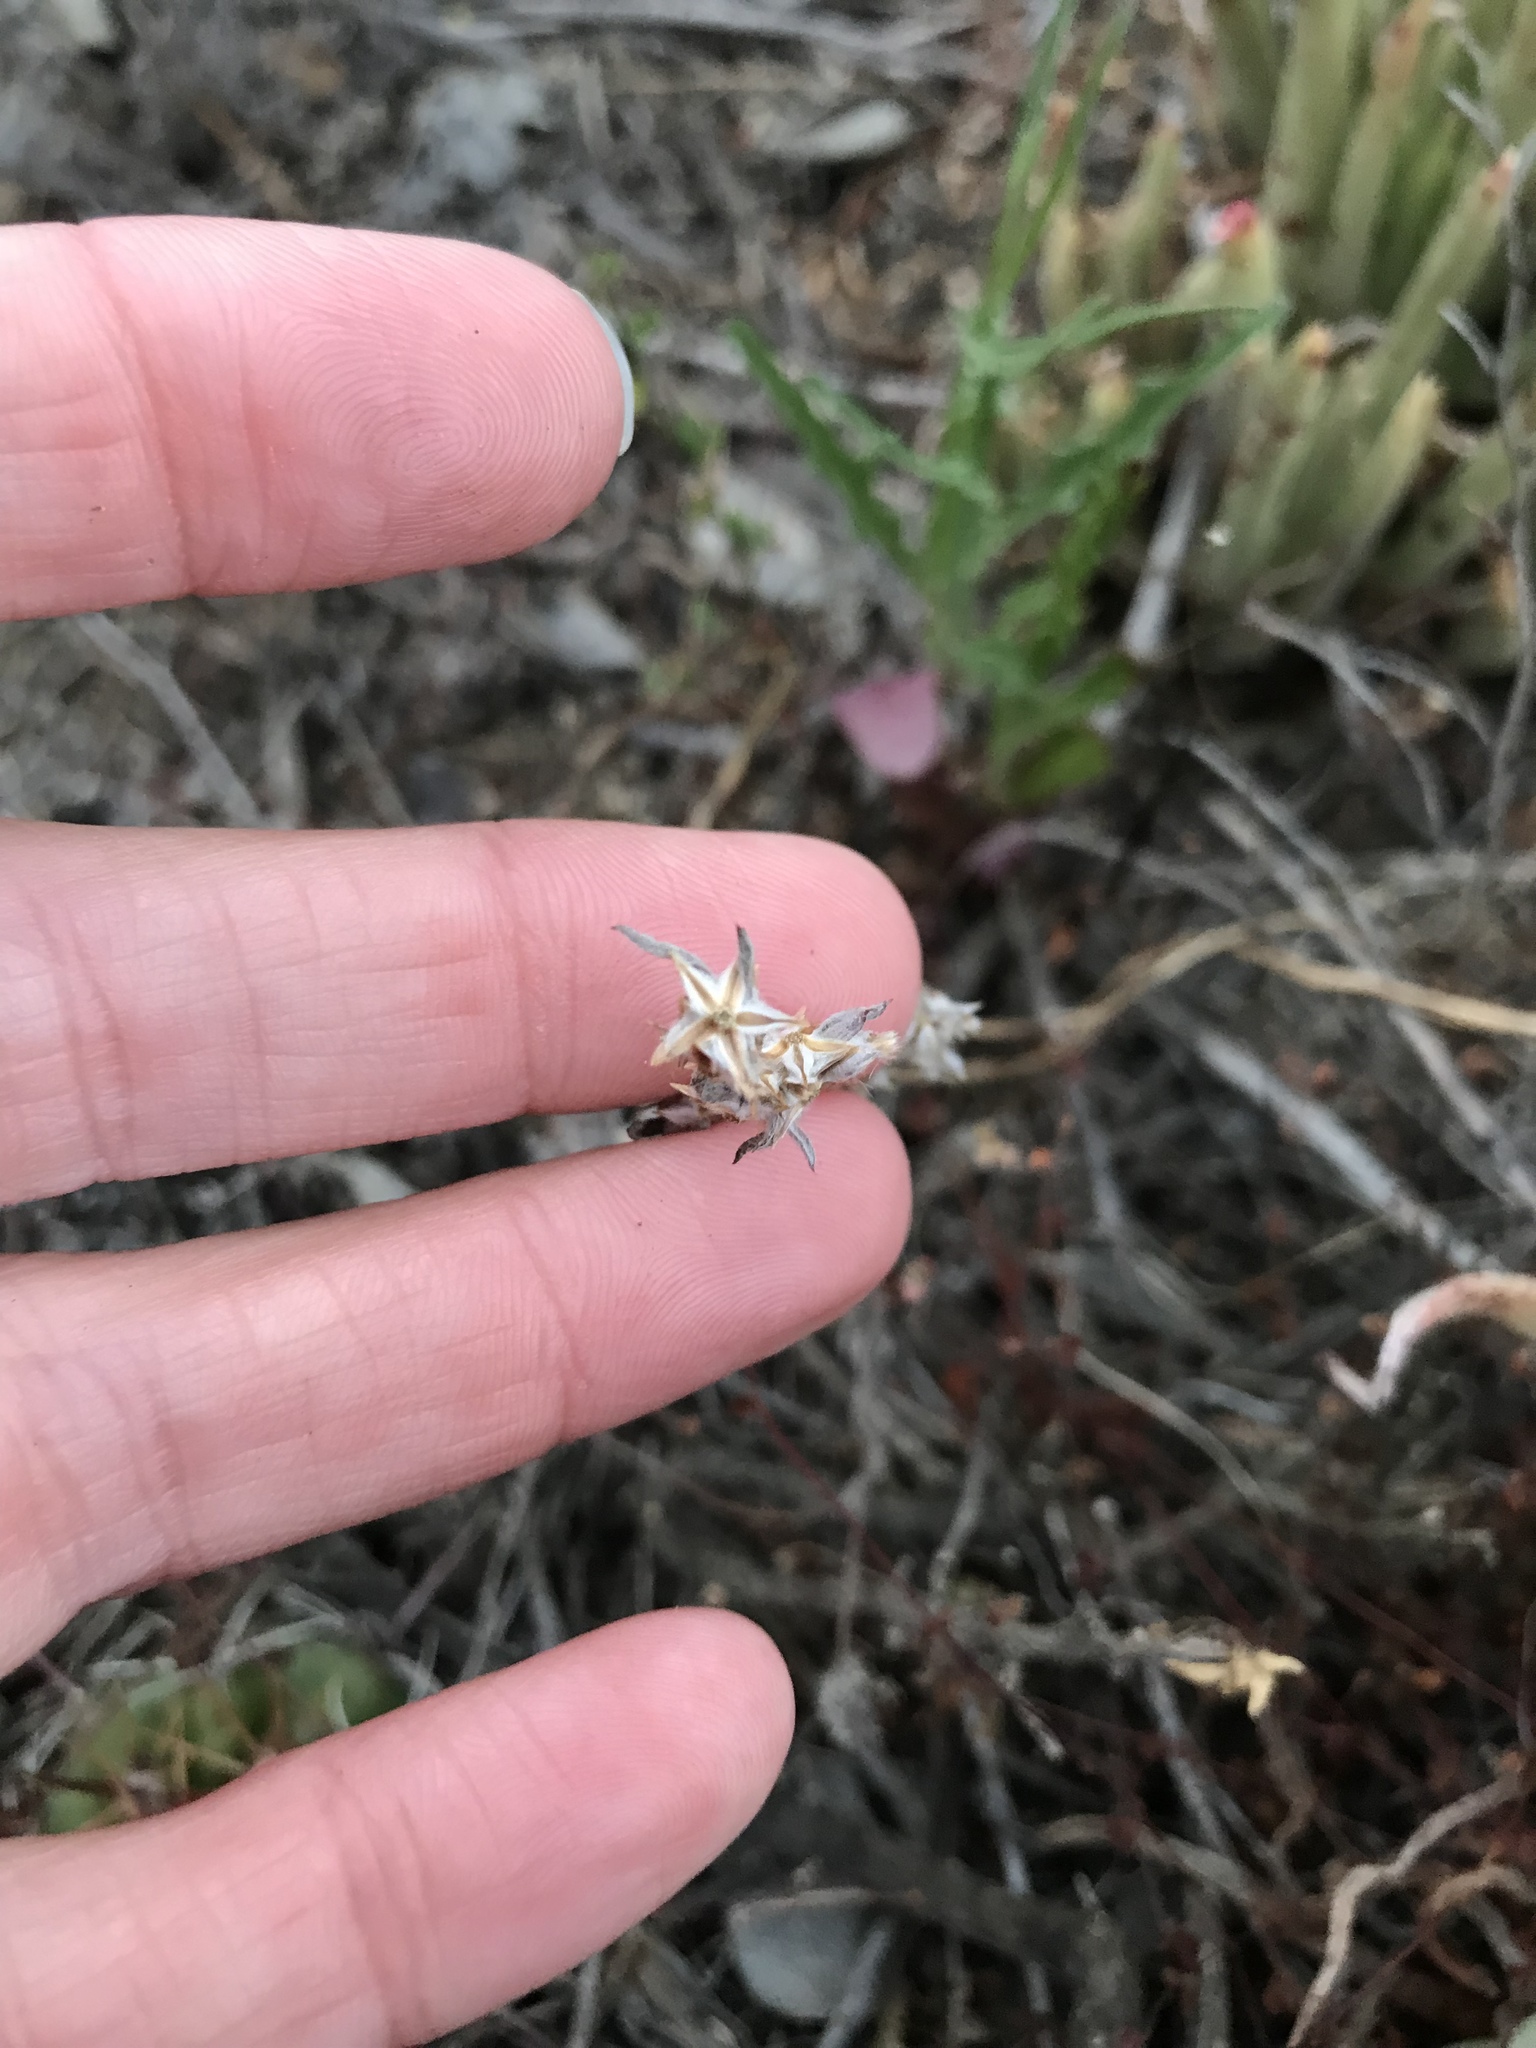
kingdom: Plantae
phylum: Tracheophyta
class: Magnoliopsida
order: Asterales
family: Asteraceae
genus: Logfia
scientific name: Logfia californica
